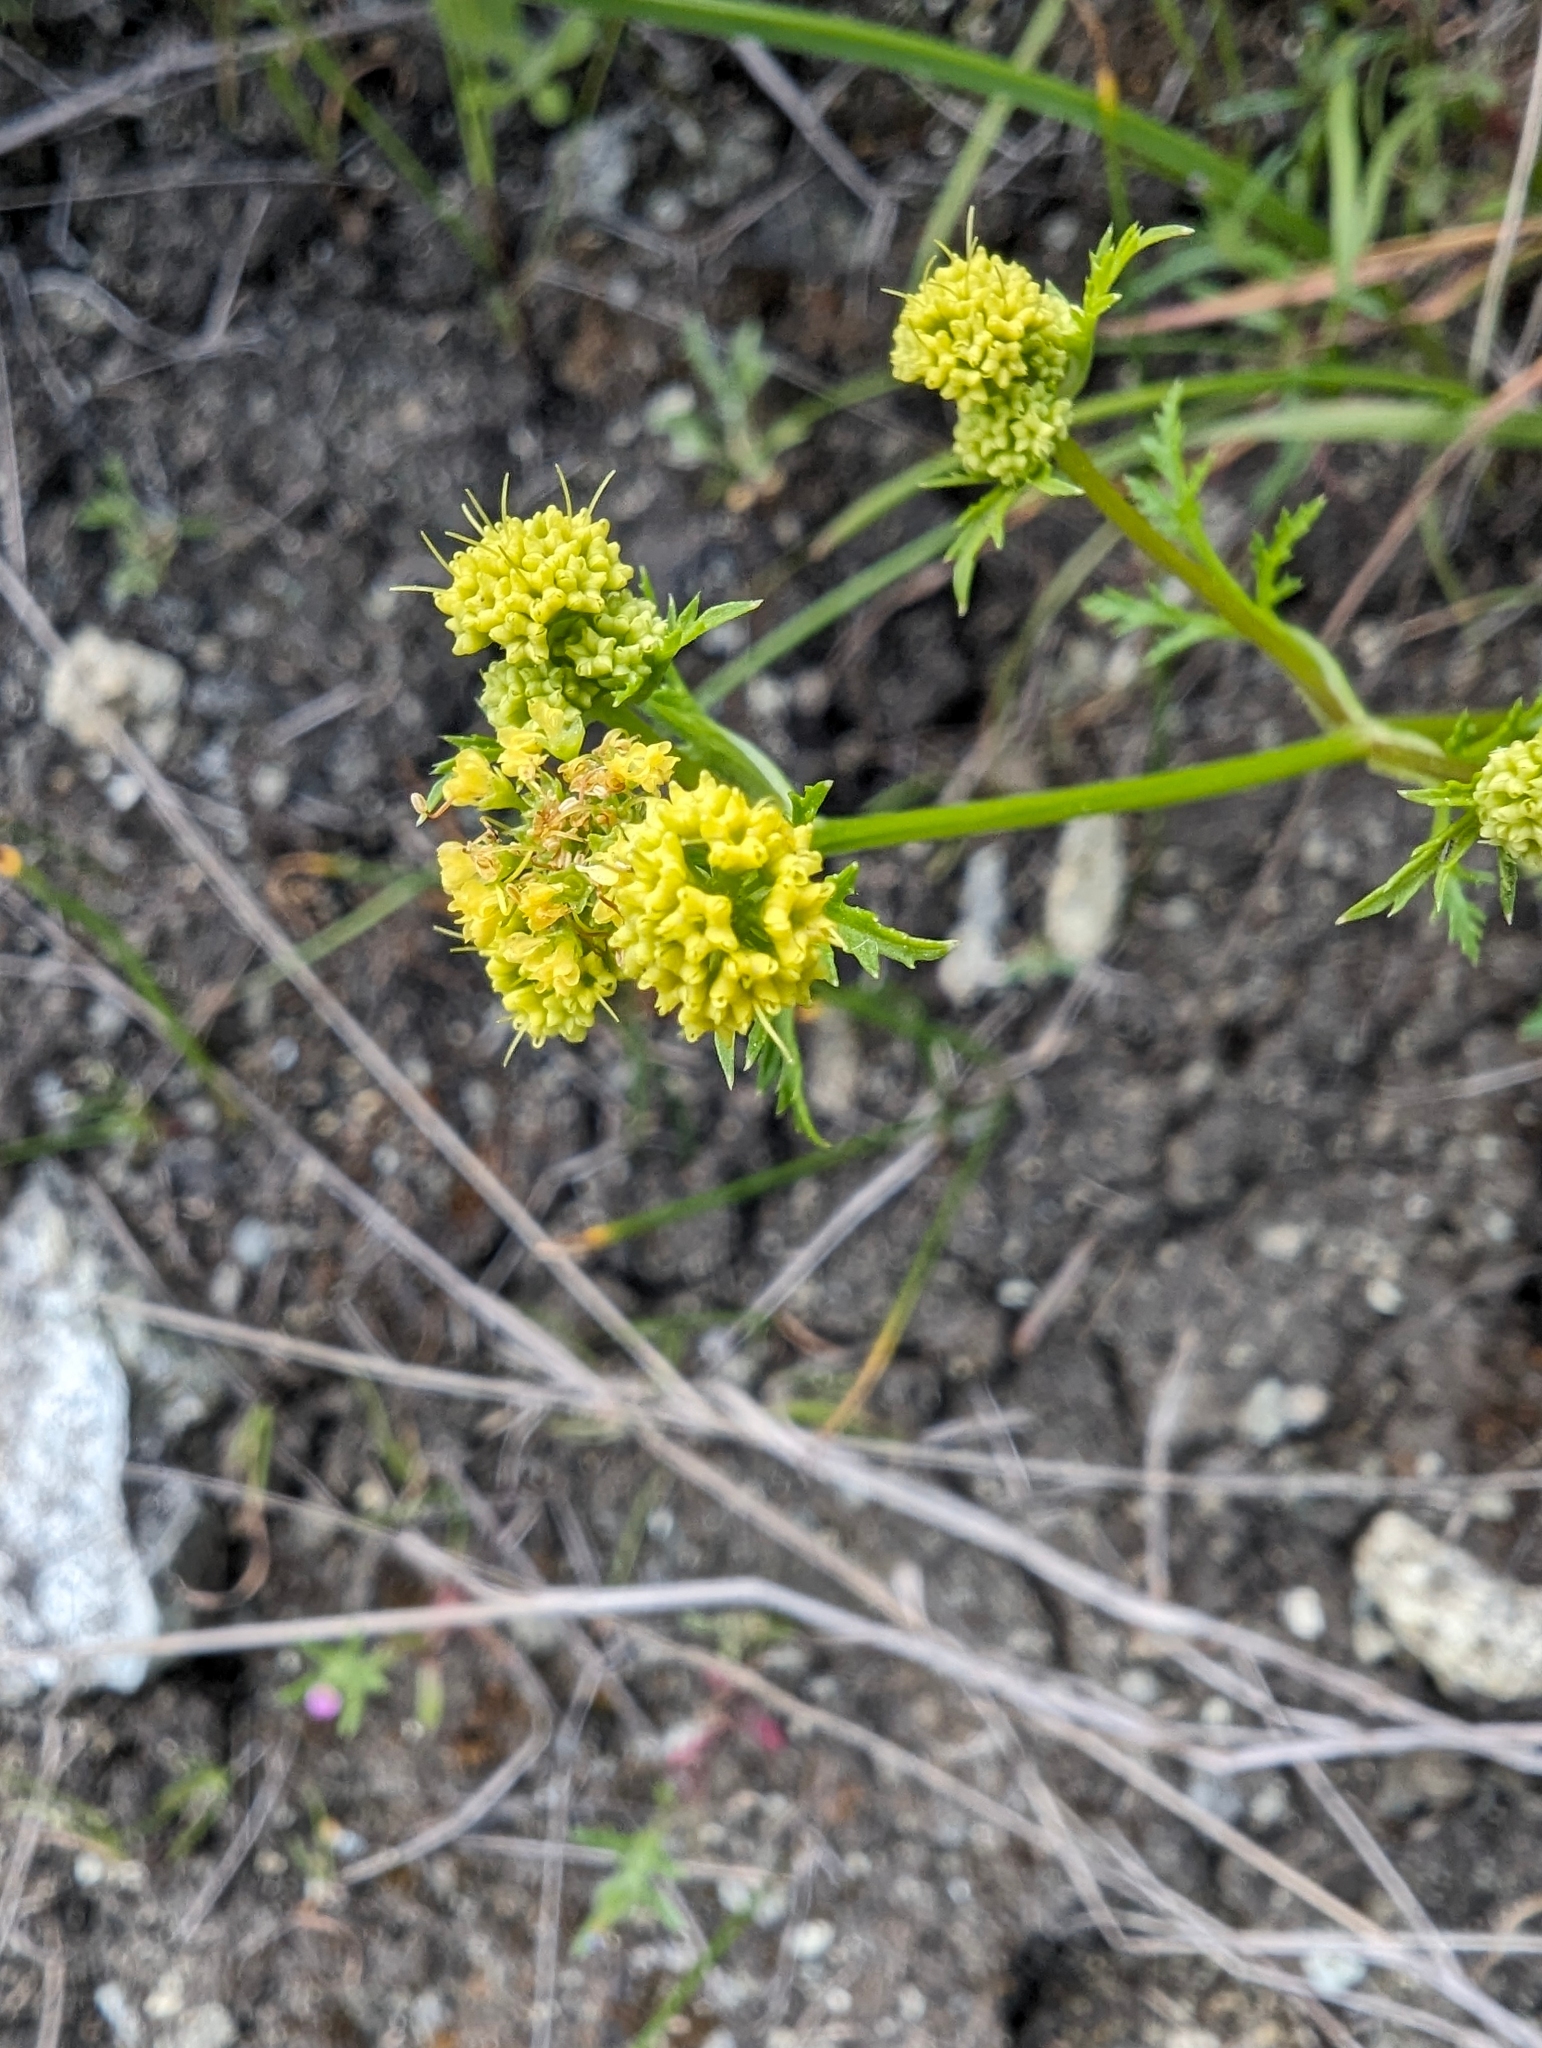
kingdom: Plantae
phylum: Tracheophyta
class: Magnoliopsida
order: Apiales
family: Apiaceae
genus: Sanicula
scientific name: Sanicula tuberosa
